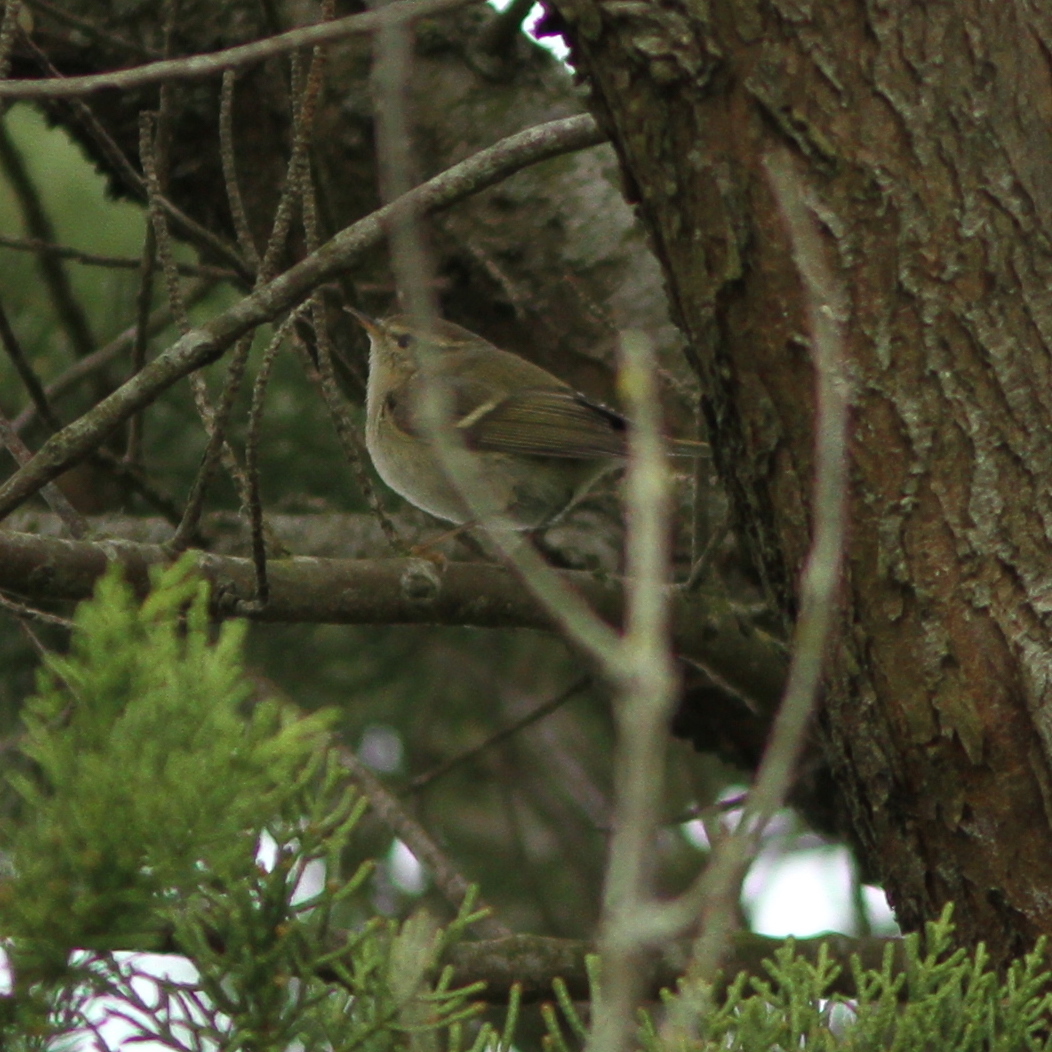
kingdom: Animalia
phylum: Chordata
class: Aves
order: Passeriformes
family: Phylloscopidae
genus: Phylloscopus
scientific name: Phylloscopus humei
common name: Hume's leaf warbler
